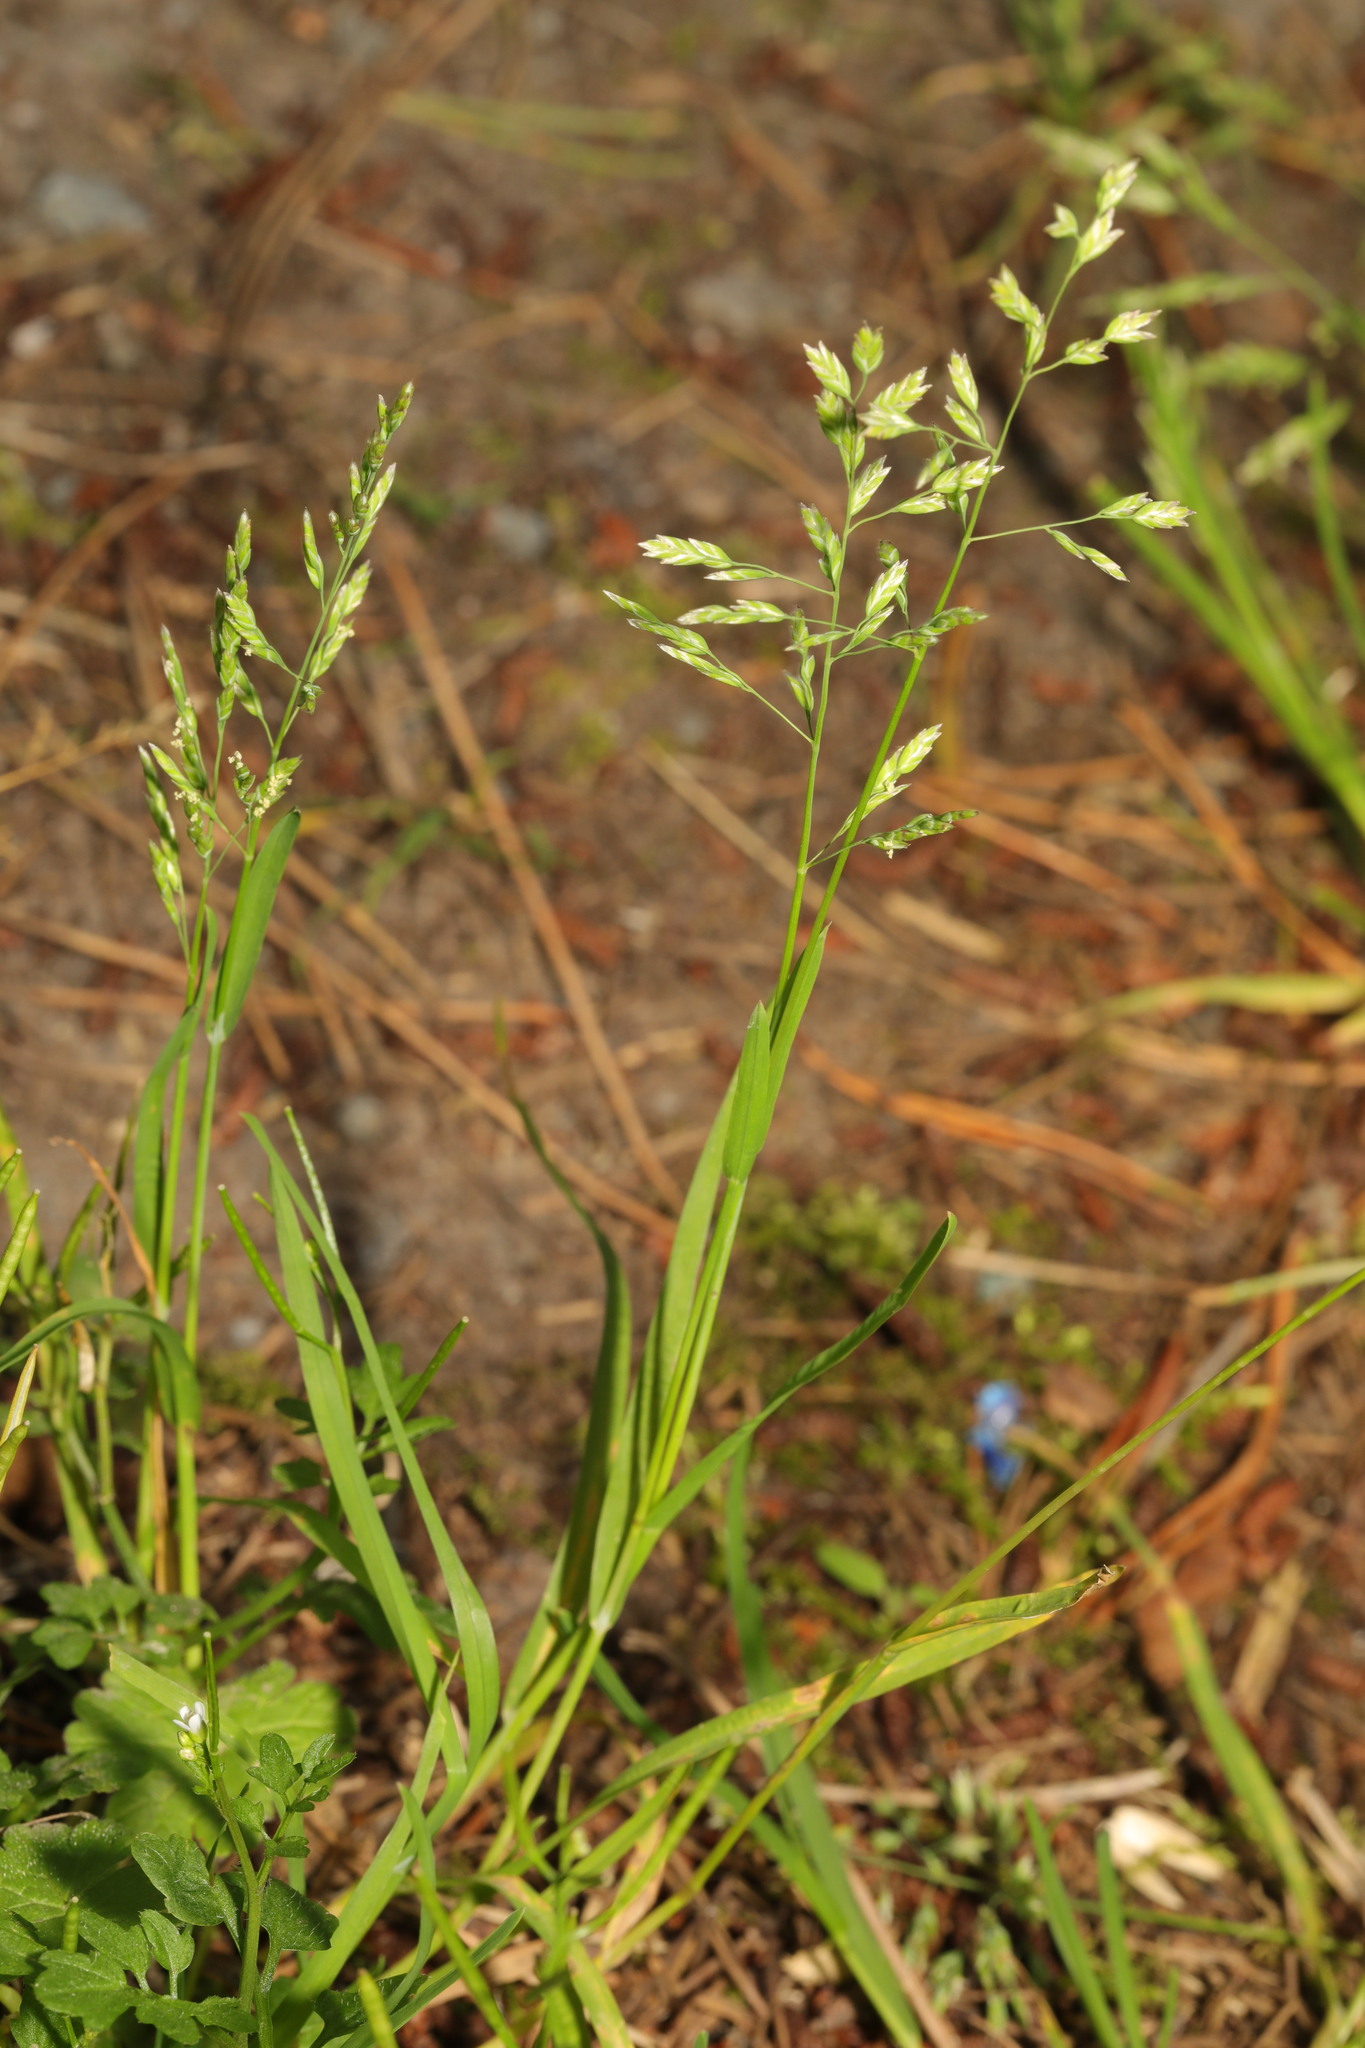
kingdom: Plantae
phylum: Tracheophyta
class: Liliopsida
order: Poales
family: Poaceae
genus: Poa
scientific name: Poa annua
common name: Annual bluegrass
